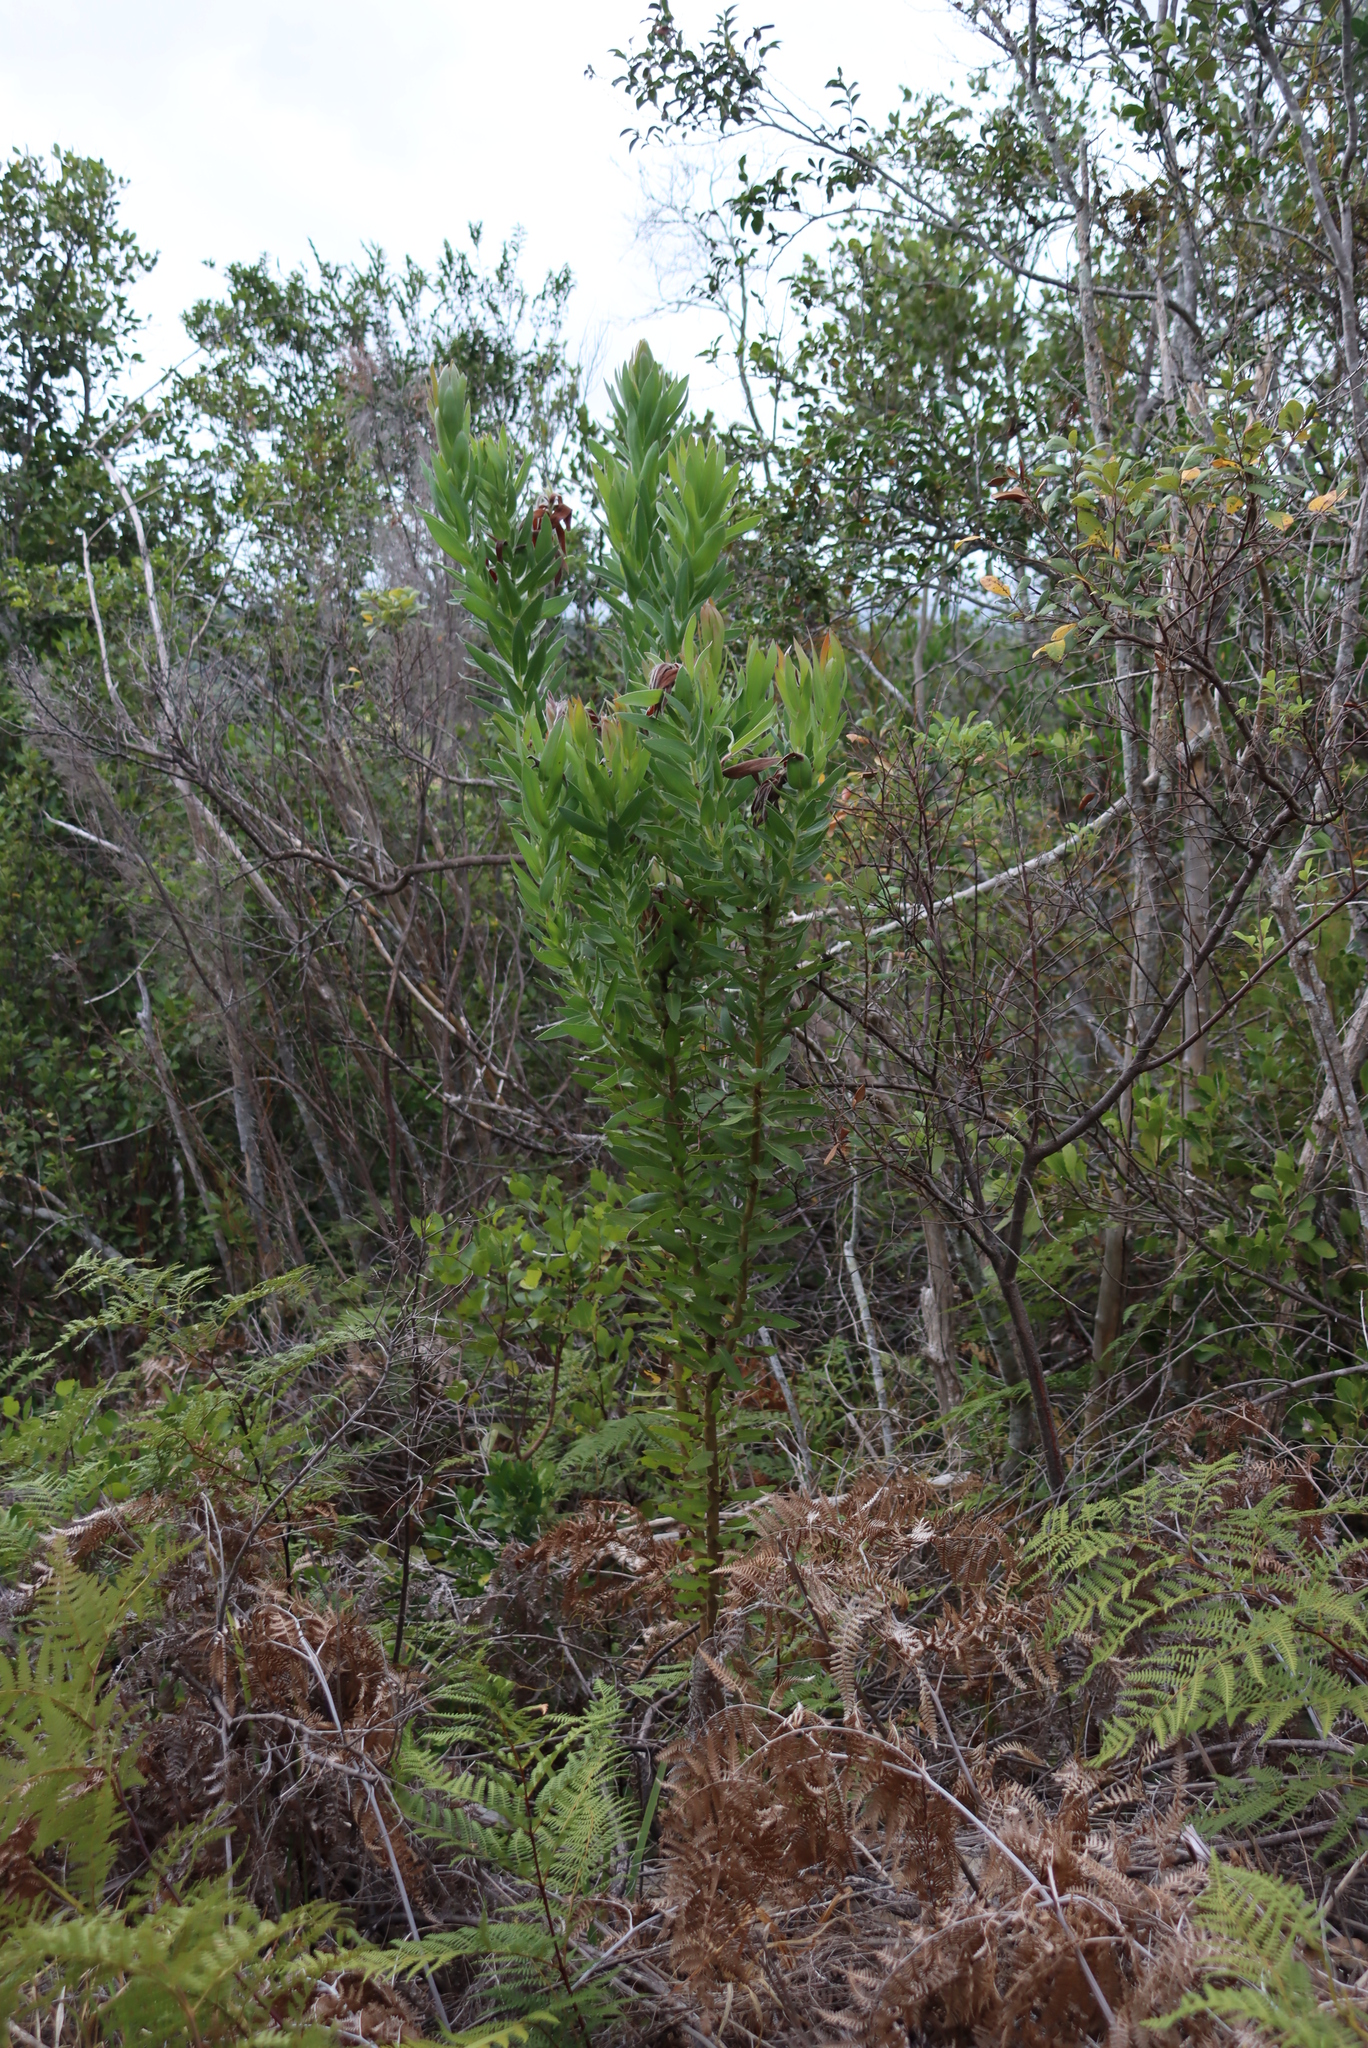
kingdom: Plantae
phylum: Tracheophyta
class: Magnoliopsida
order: Proteales
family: Proteaceae
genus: Protea
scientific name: Protea coronata
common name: Green sugarbush
